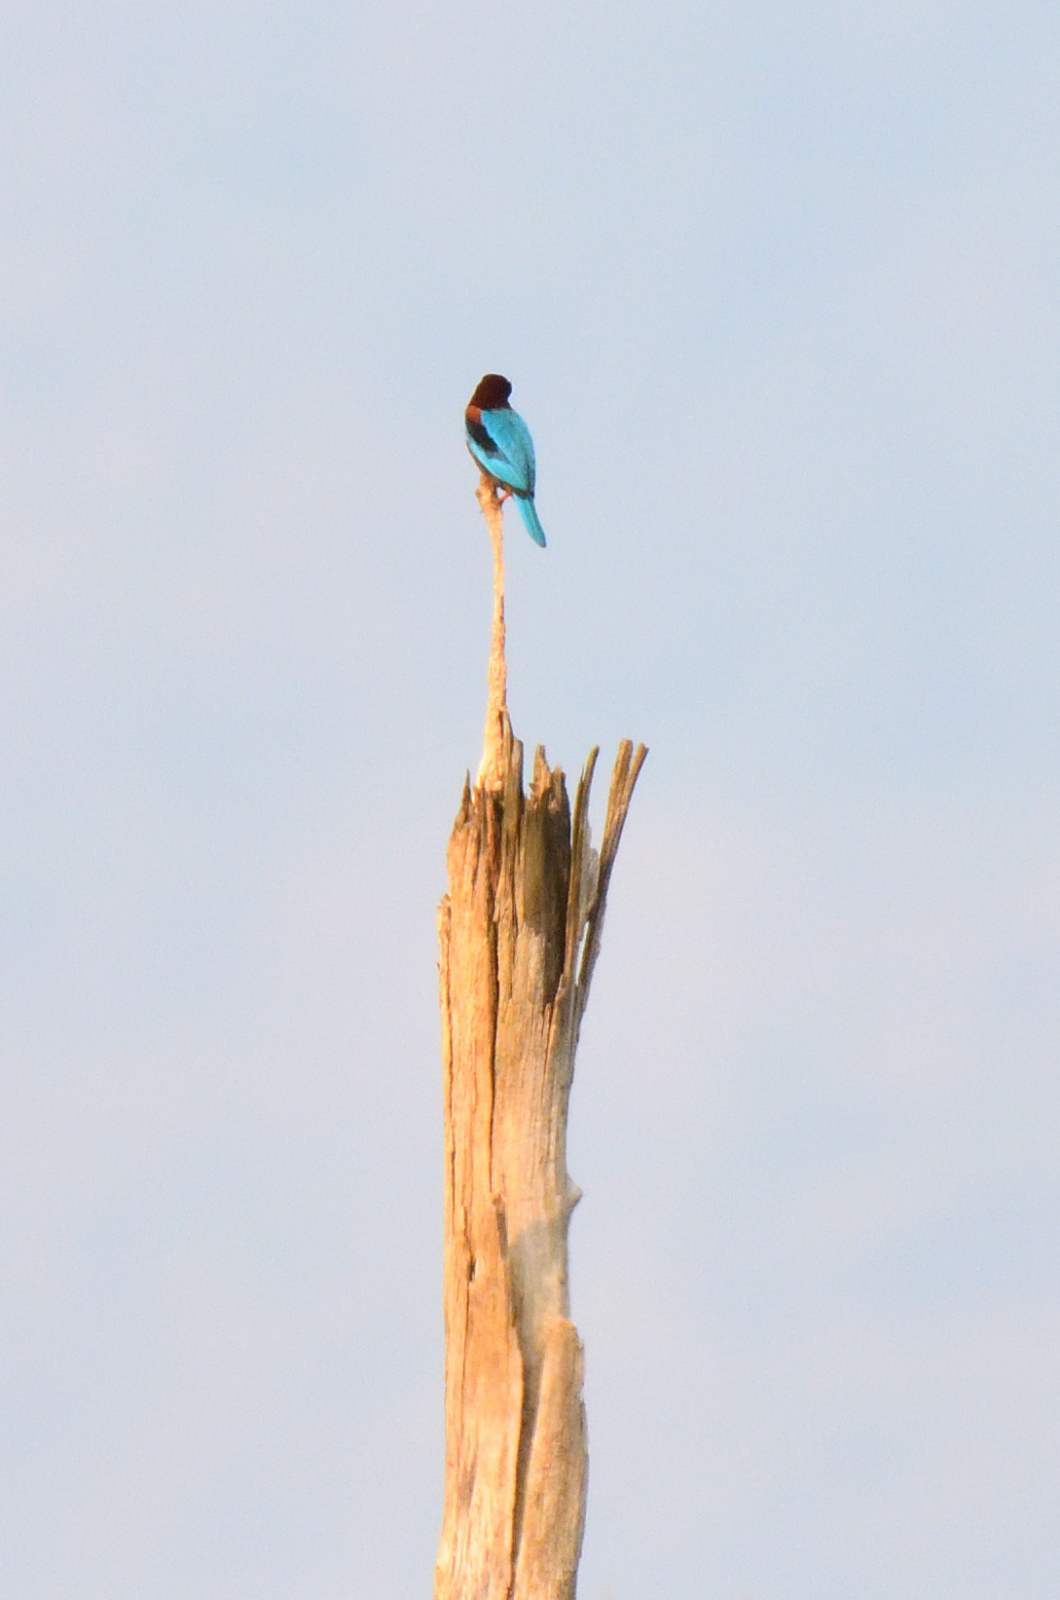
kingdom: Animalia
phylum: Chordata
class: Aves
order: Coraciiformes
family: Alcedinidae
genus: Halcyon
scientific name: Halcyon smyrnensis
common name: White-throated kingfisher
